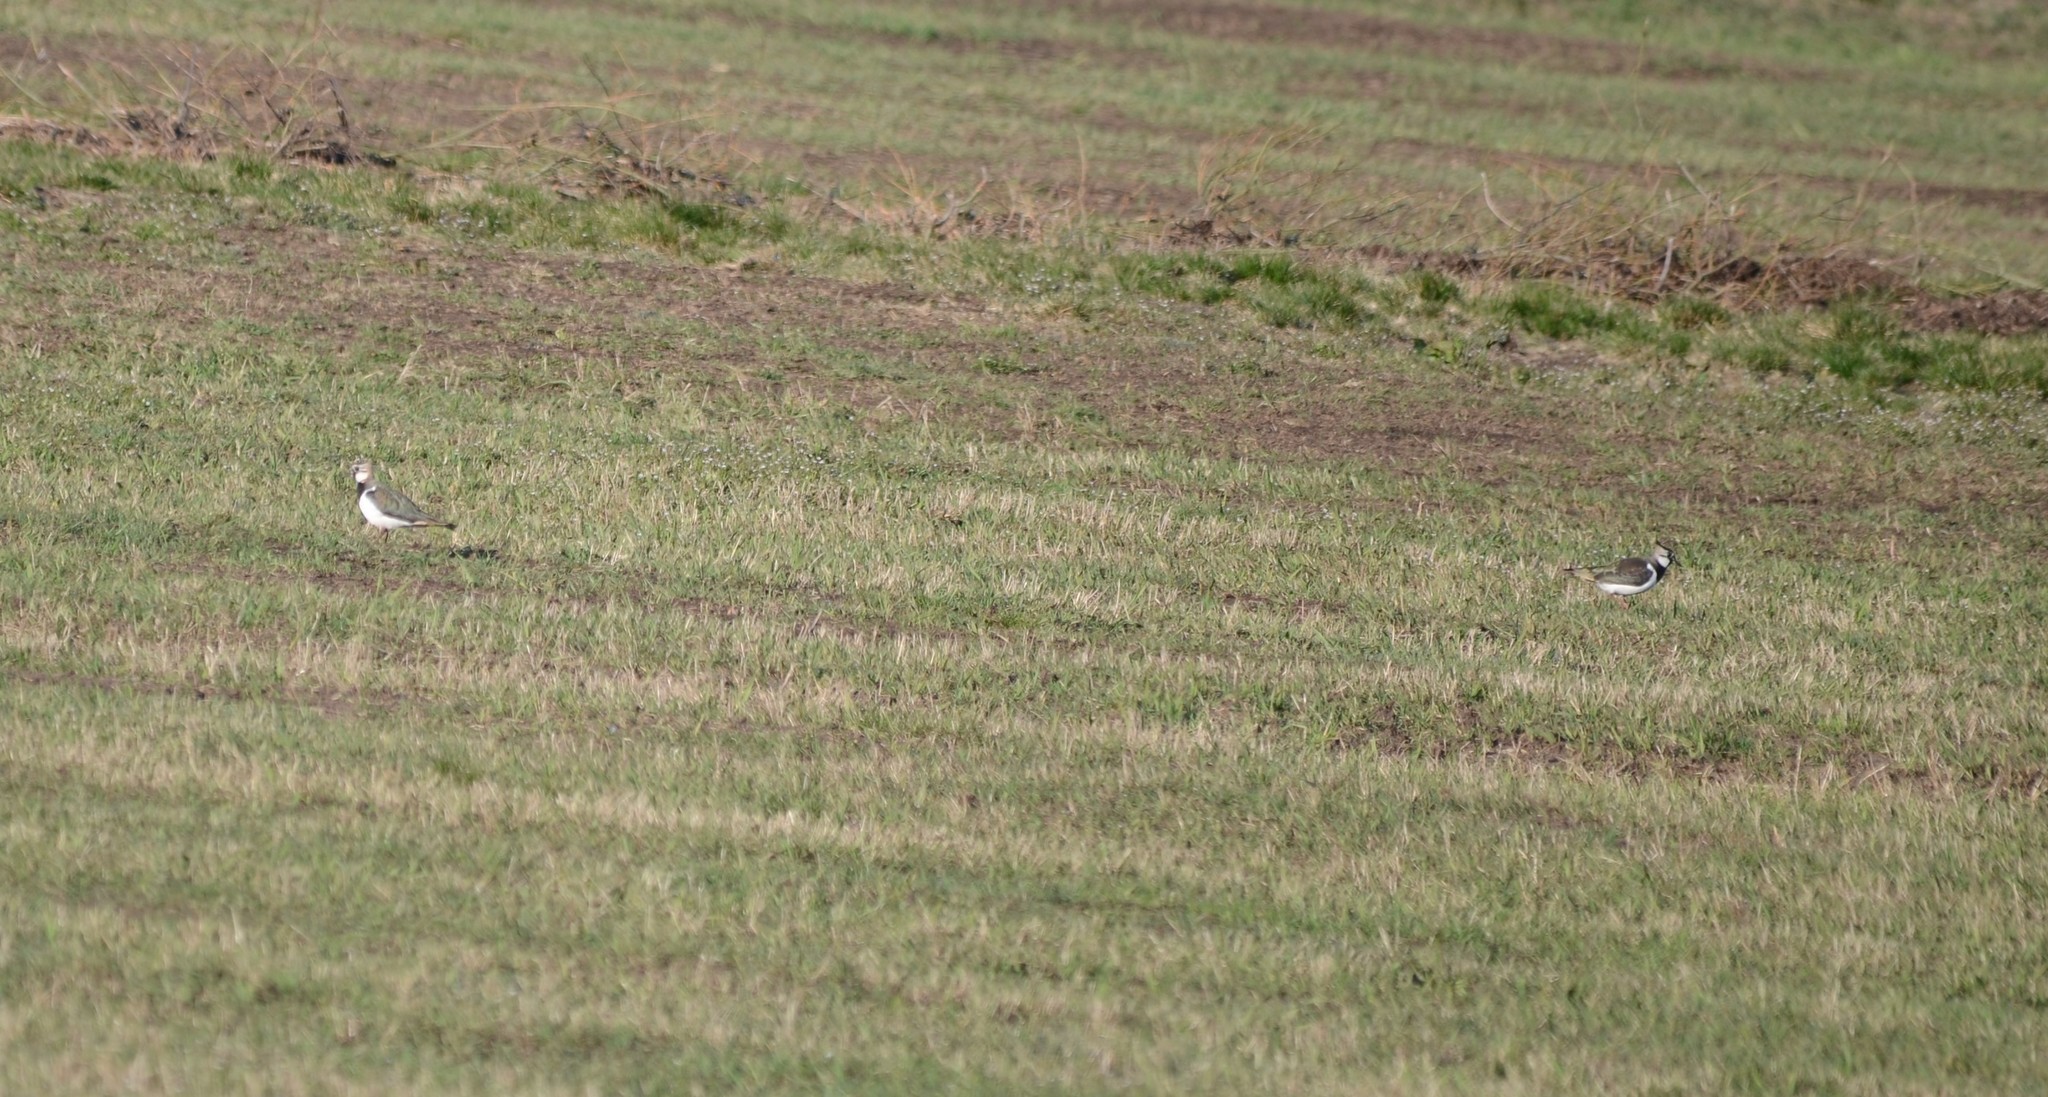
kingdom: Animalia
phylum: Chordata
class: Aves
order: Charadriiformes
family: Charadriidae
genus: Vanellus
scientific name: Vanellus vanellus
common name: Northern lapwing
